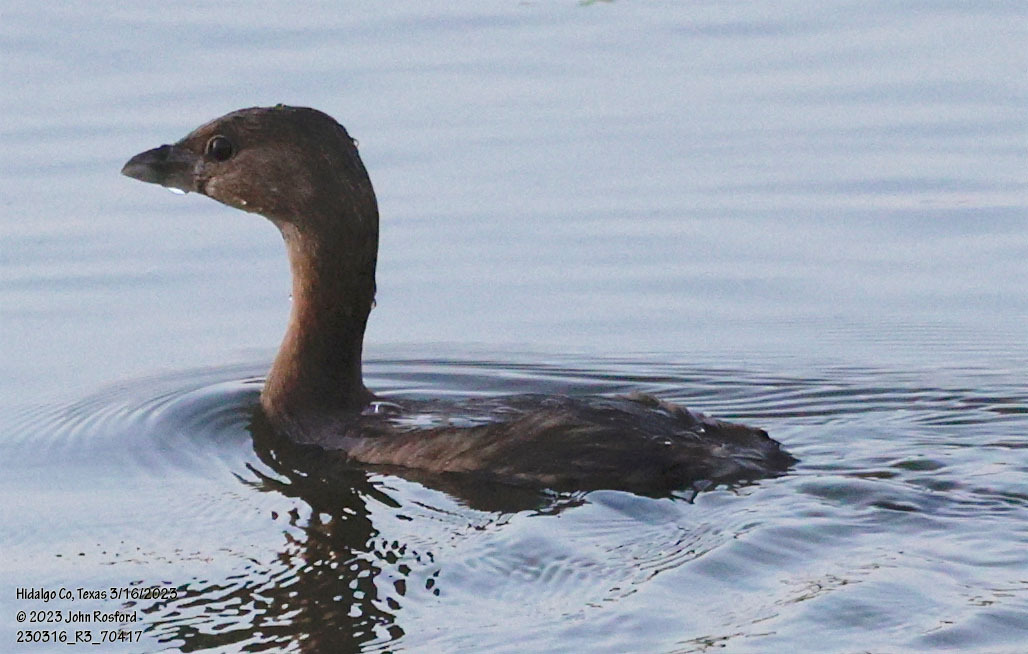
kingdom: Animalia
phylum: Chordata
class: Aves
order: Podicipediformes
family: Podicipedidae
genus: Podilymbus
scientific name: Podilymbus podiceps
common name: Pied-billed grebe
